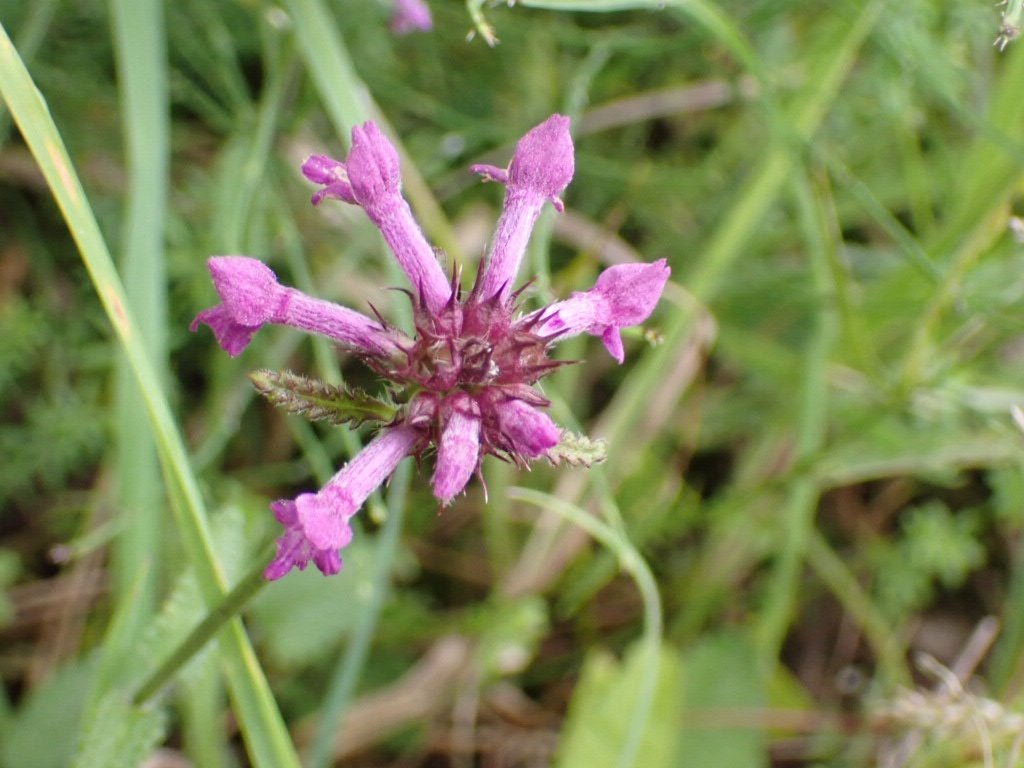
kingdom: Plantae
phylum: Tracheophyta
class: Magnoliopsida
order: Lamiales
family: Lamiaceae
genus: Betonica
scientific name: Betonica officinalis
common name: Bishop's-wort
